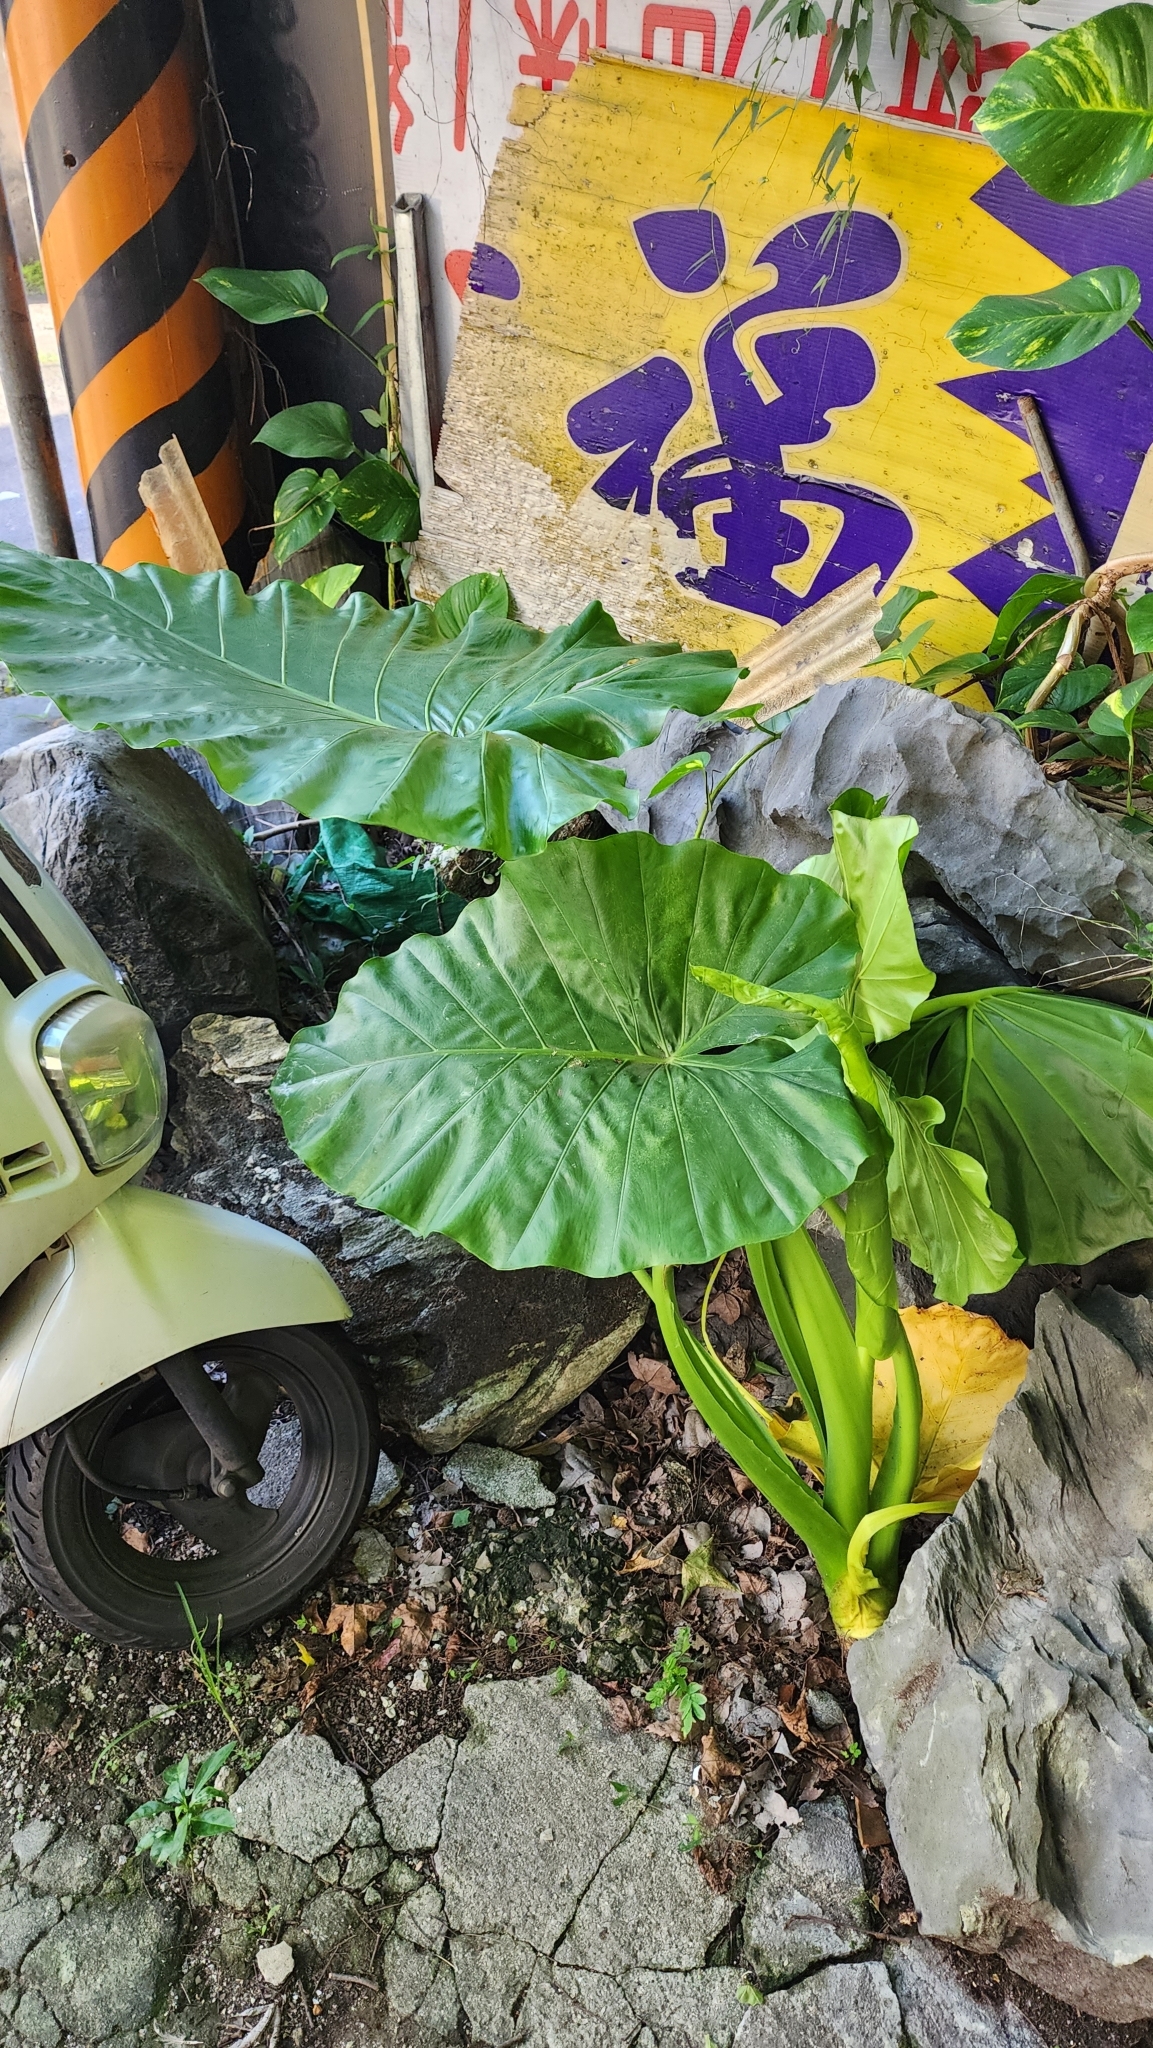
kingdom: Plantae
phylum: Tracheophyta
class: Liliopsida
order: Alismatales
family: Araceae
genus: Alocasia
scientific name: Alocasia odora
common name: Asian taro
